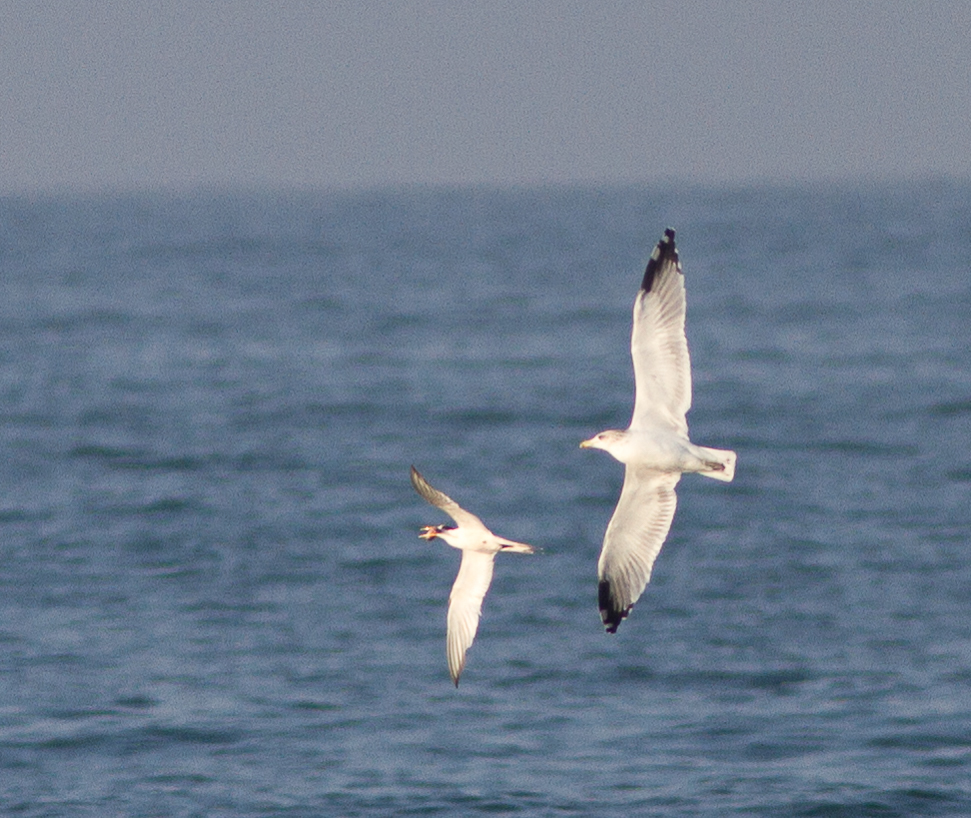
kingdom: Animalia
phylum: Chordata
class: Aves
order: Charadriiformes
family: Laridae
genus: Thalasseus
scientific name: Thalasseus elegans
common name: Elegant tern
